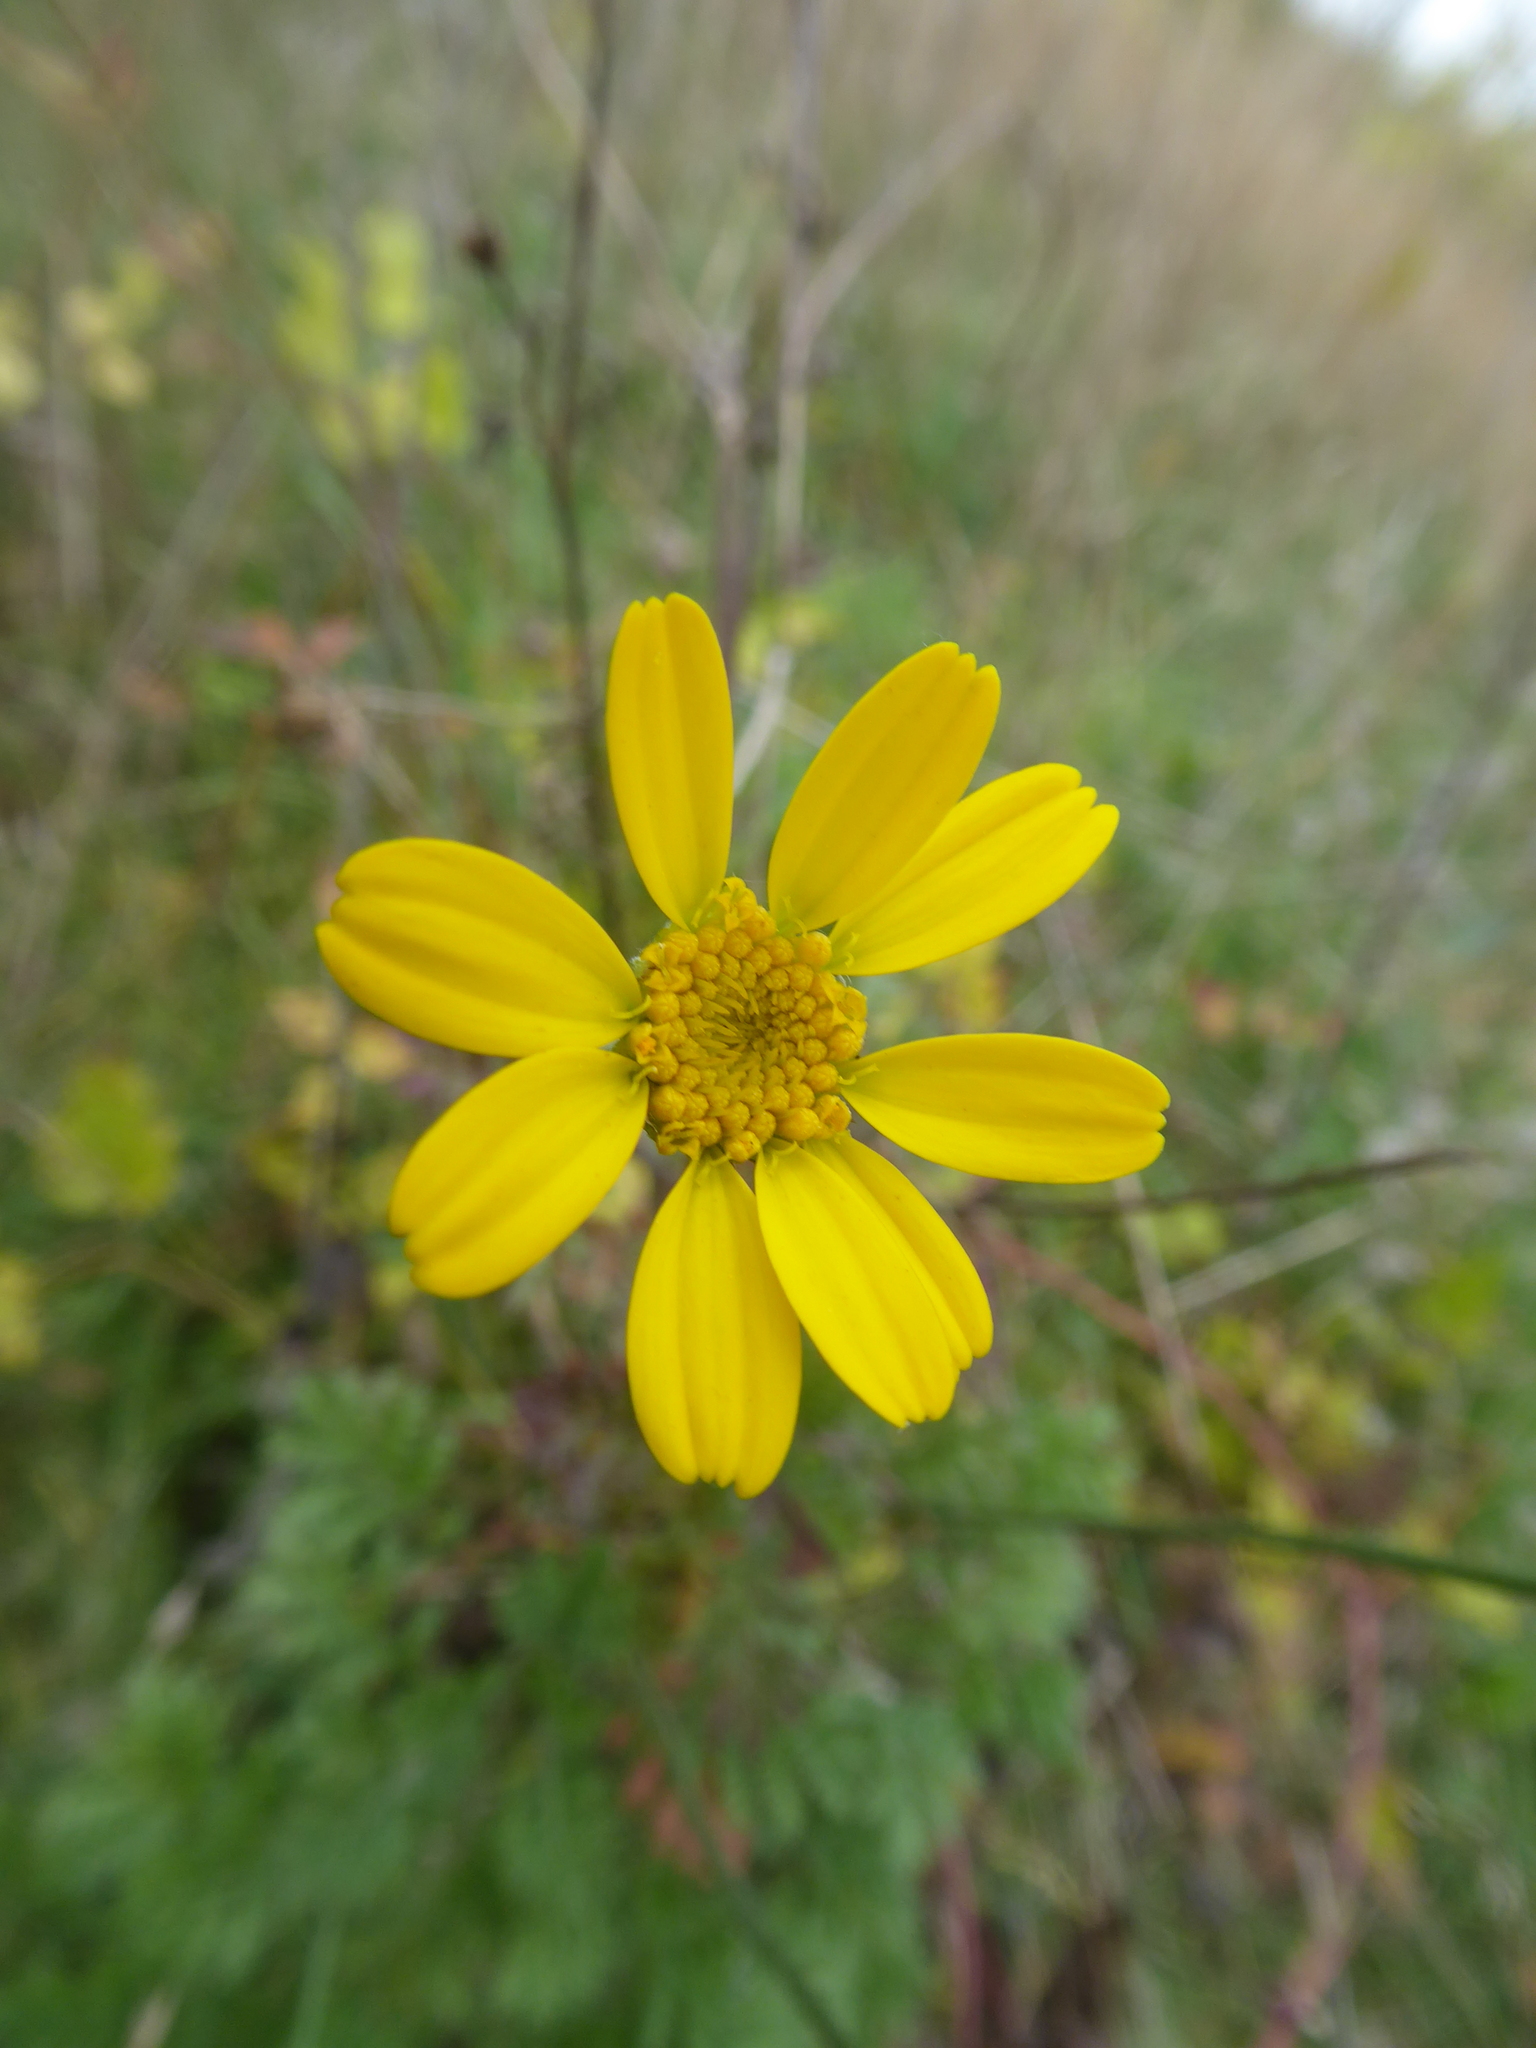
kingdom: Plantae
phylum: Tracheophyta
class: Magnoliopsida
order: Asterales
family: Asteraceae
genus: Cota
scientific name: Cota tinctoria
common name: Golden chamomile
